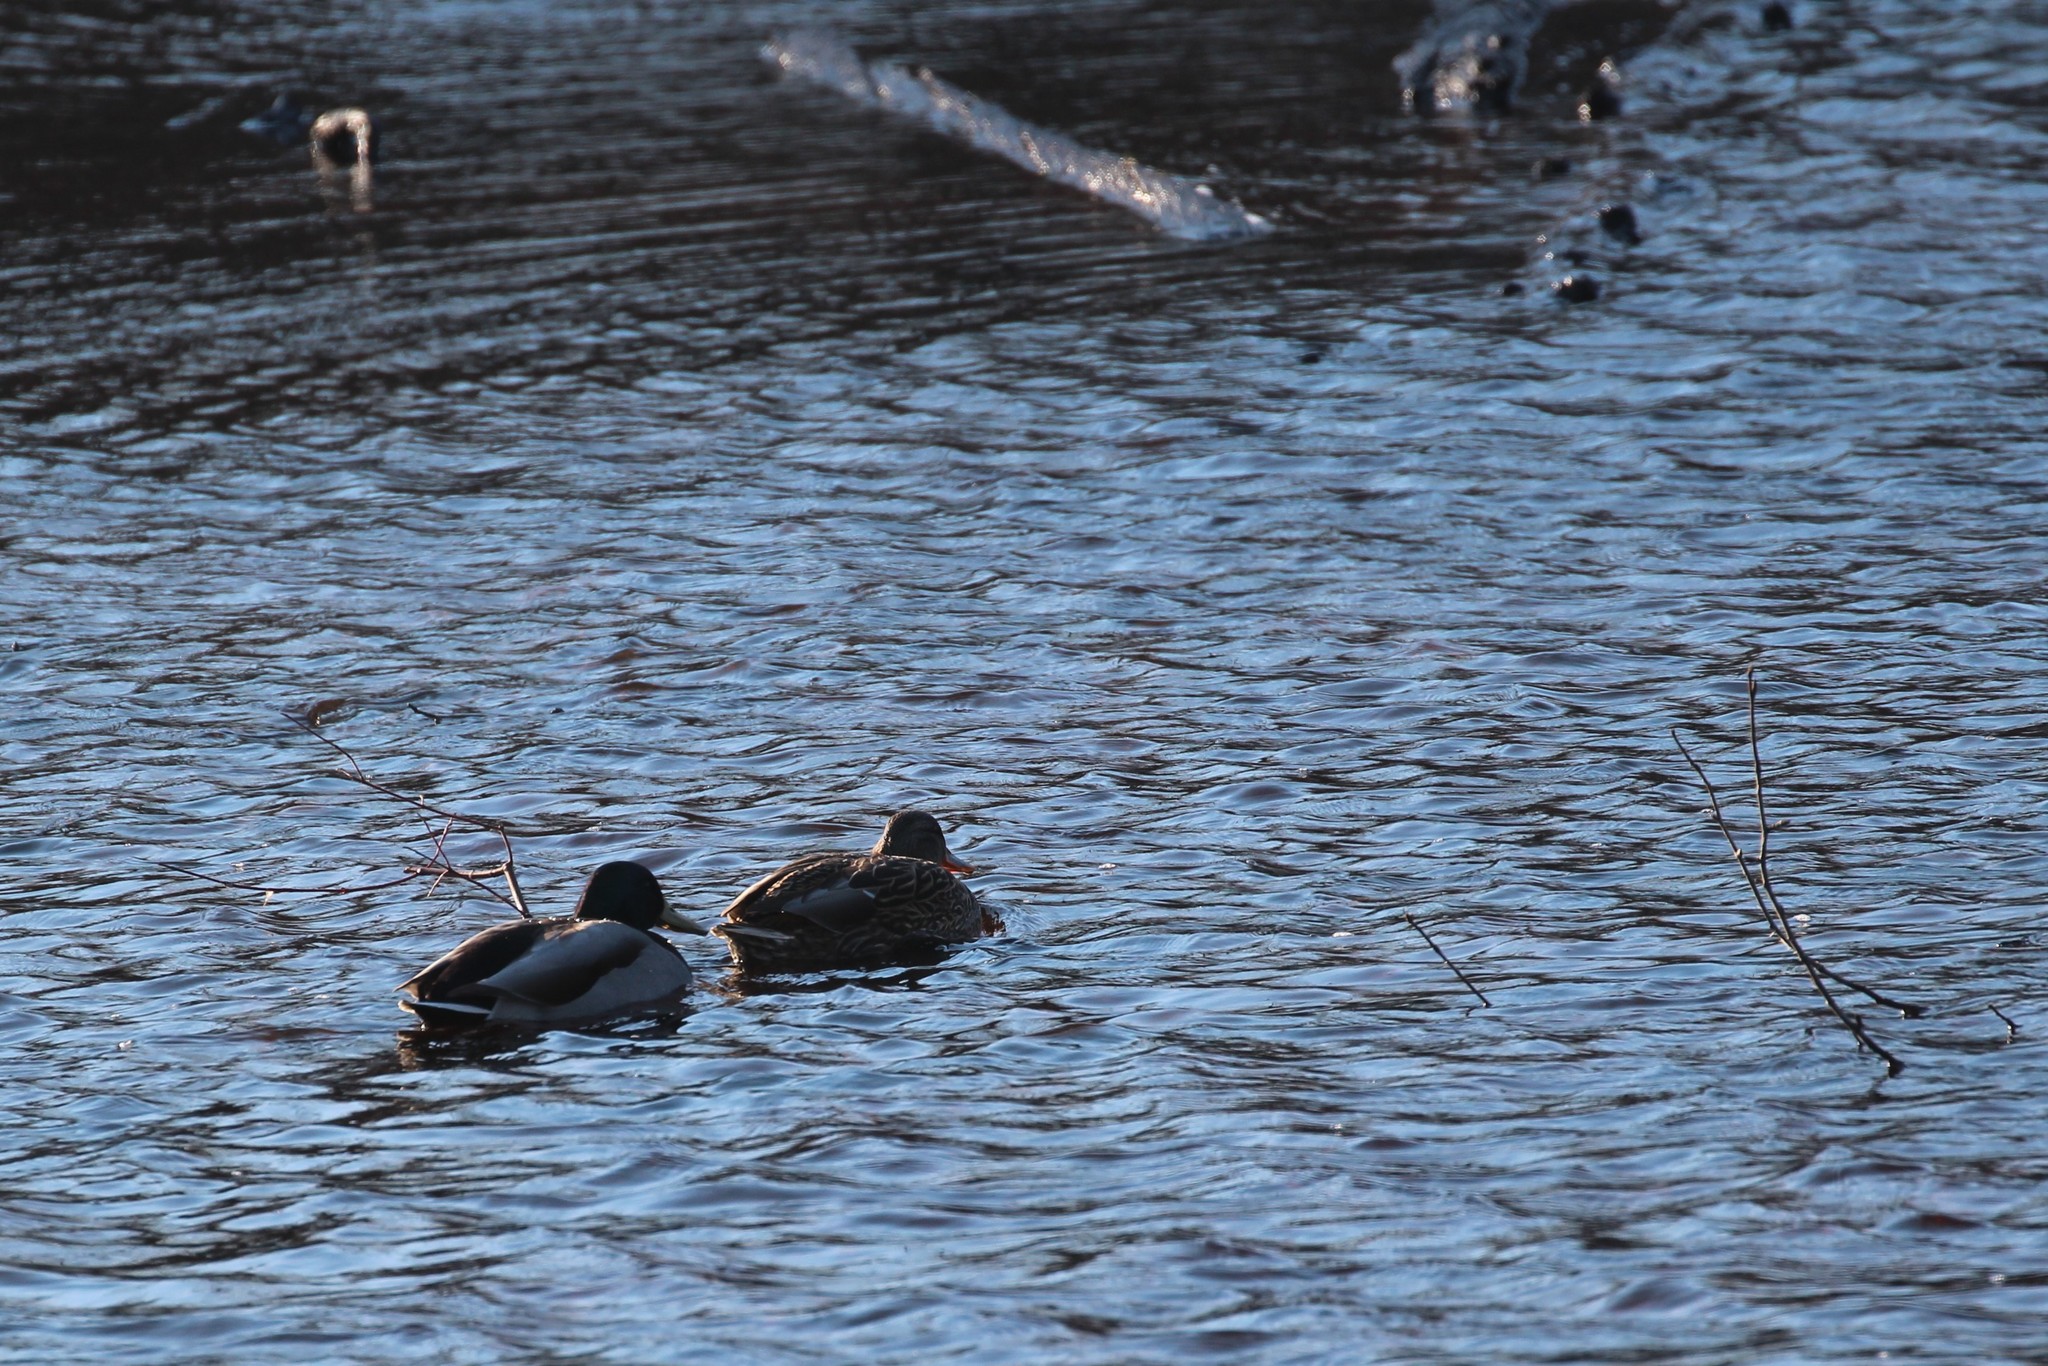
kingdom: Animalia
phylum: Chordata
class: Aves
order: Anseriformes
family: Anatidae
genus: Anas
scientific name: Anas platyrhynchos
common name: Mallard
